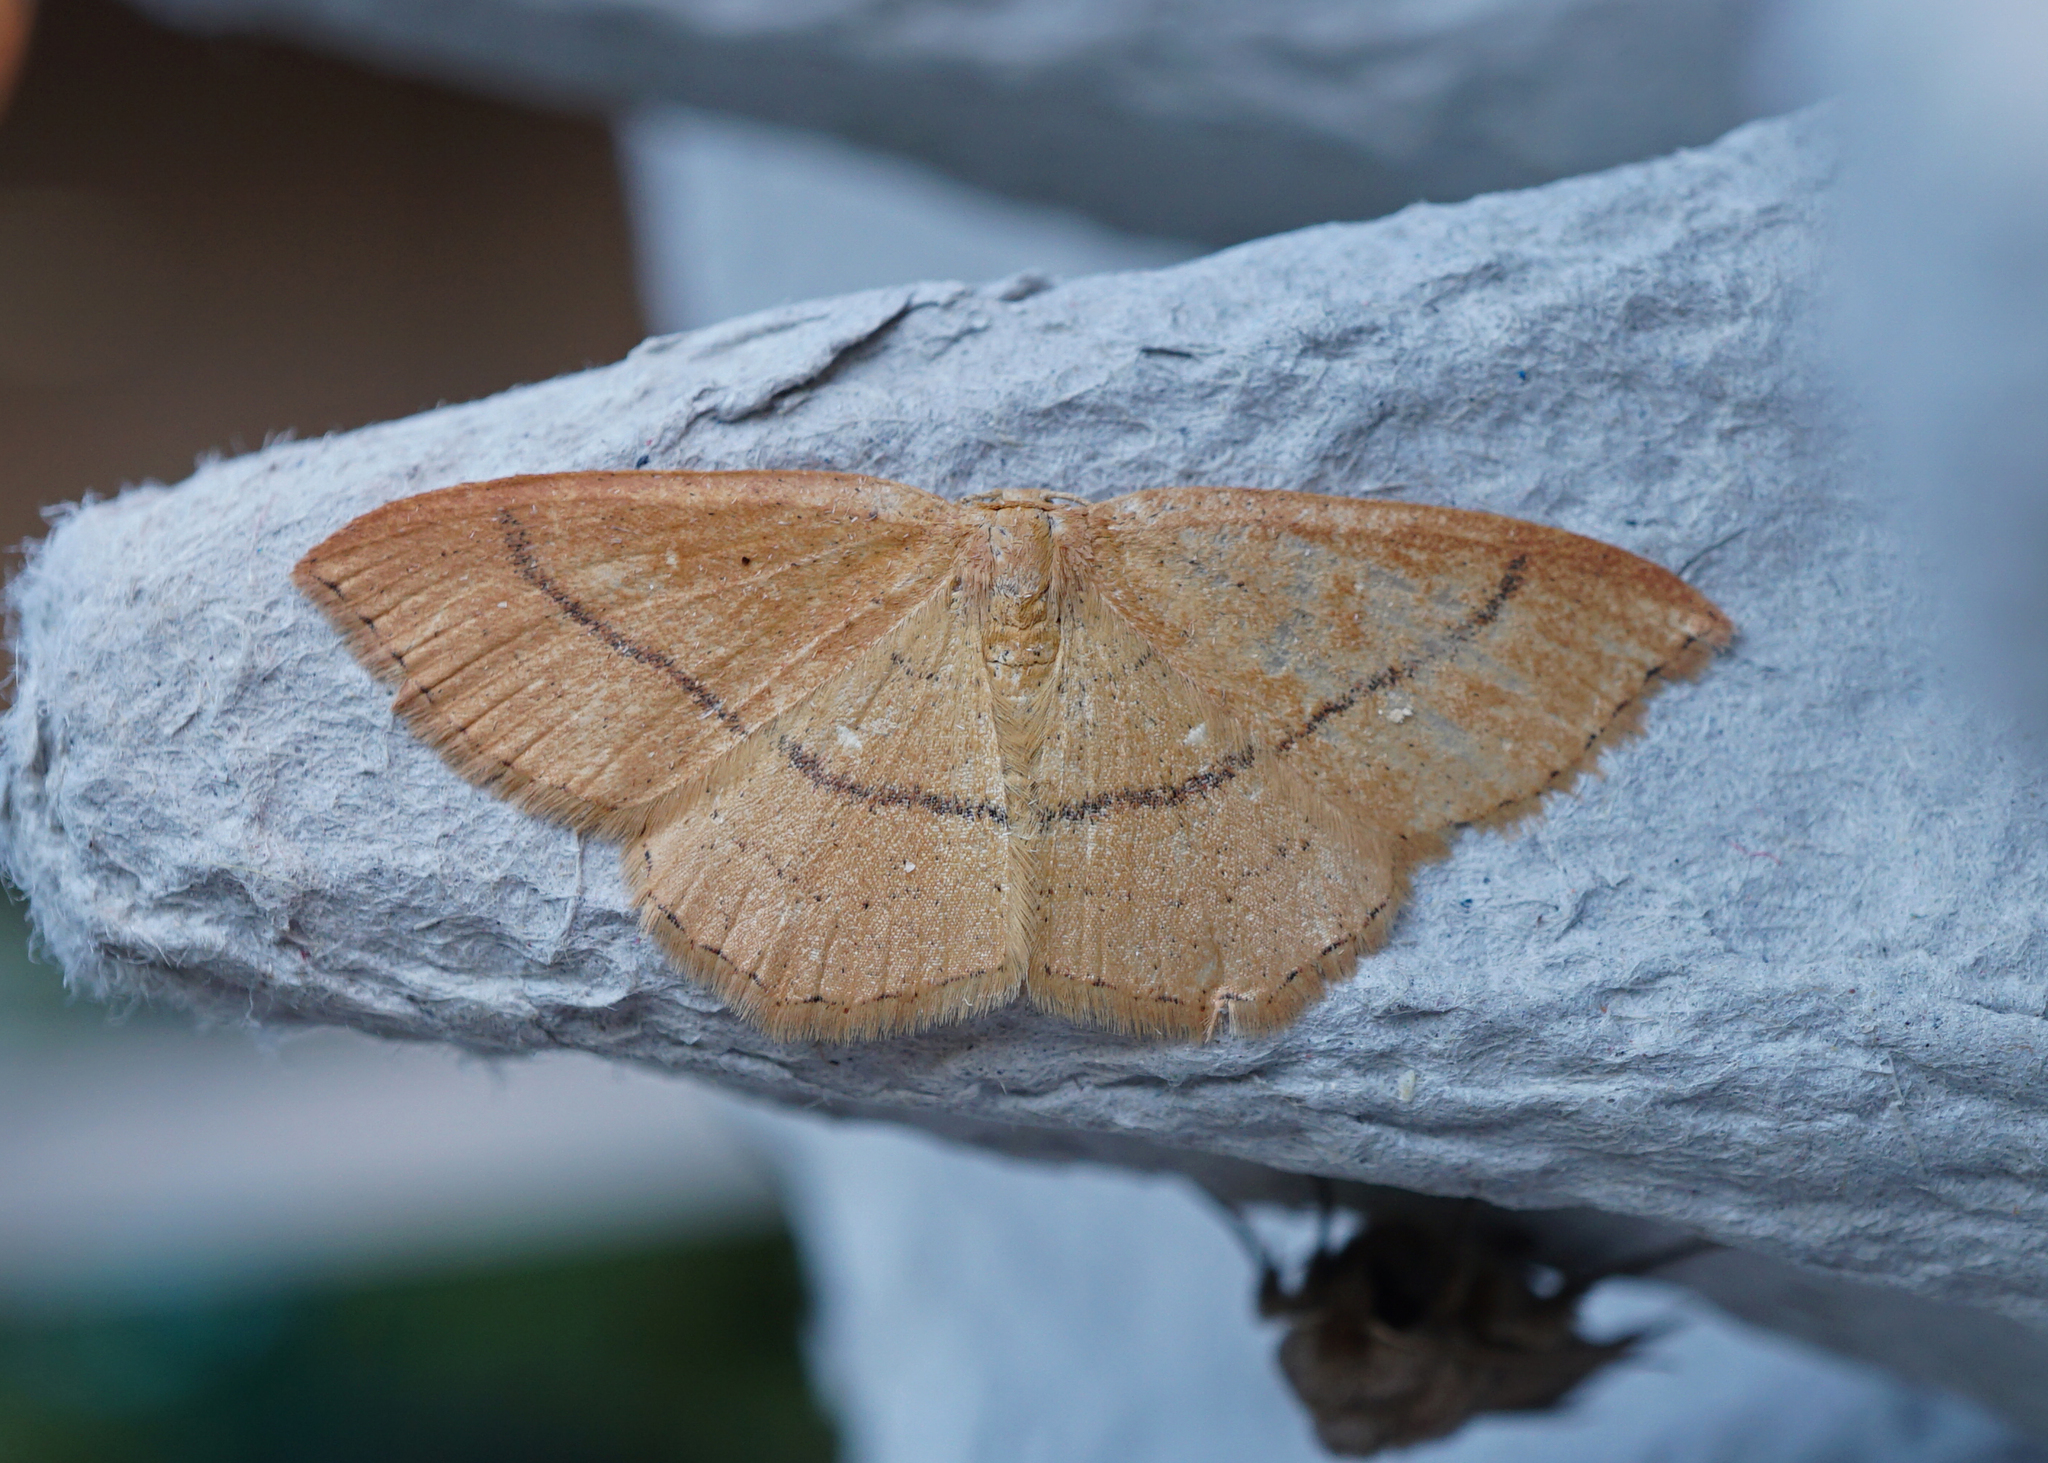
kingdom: Animalia
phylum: Arthropoda
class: Insecta
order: Lepidoptera
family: Geometridae
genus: Cyclophora
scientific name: Cyclophora punctaria
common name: Maiden's blush
